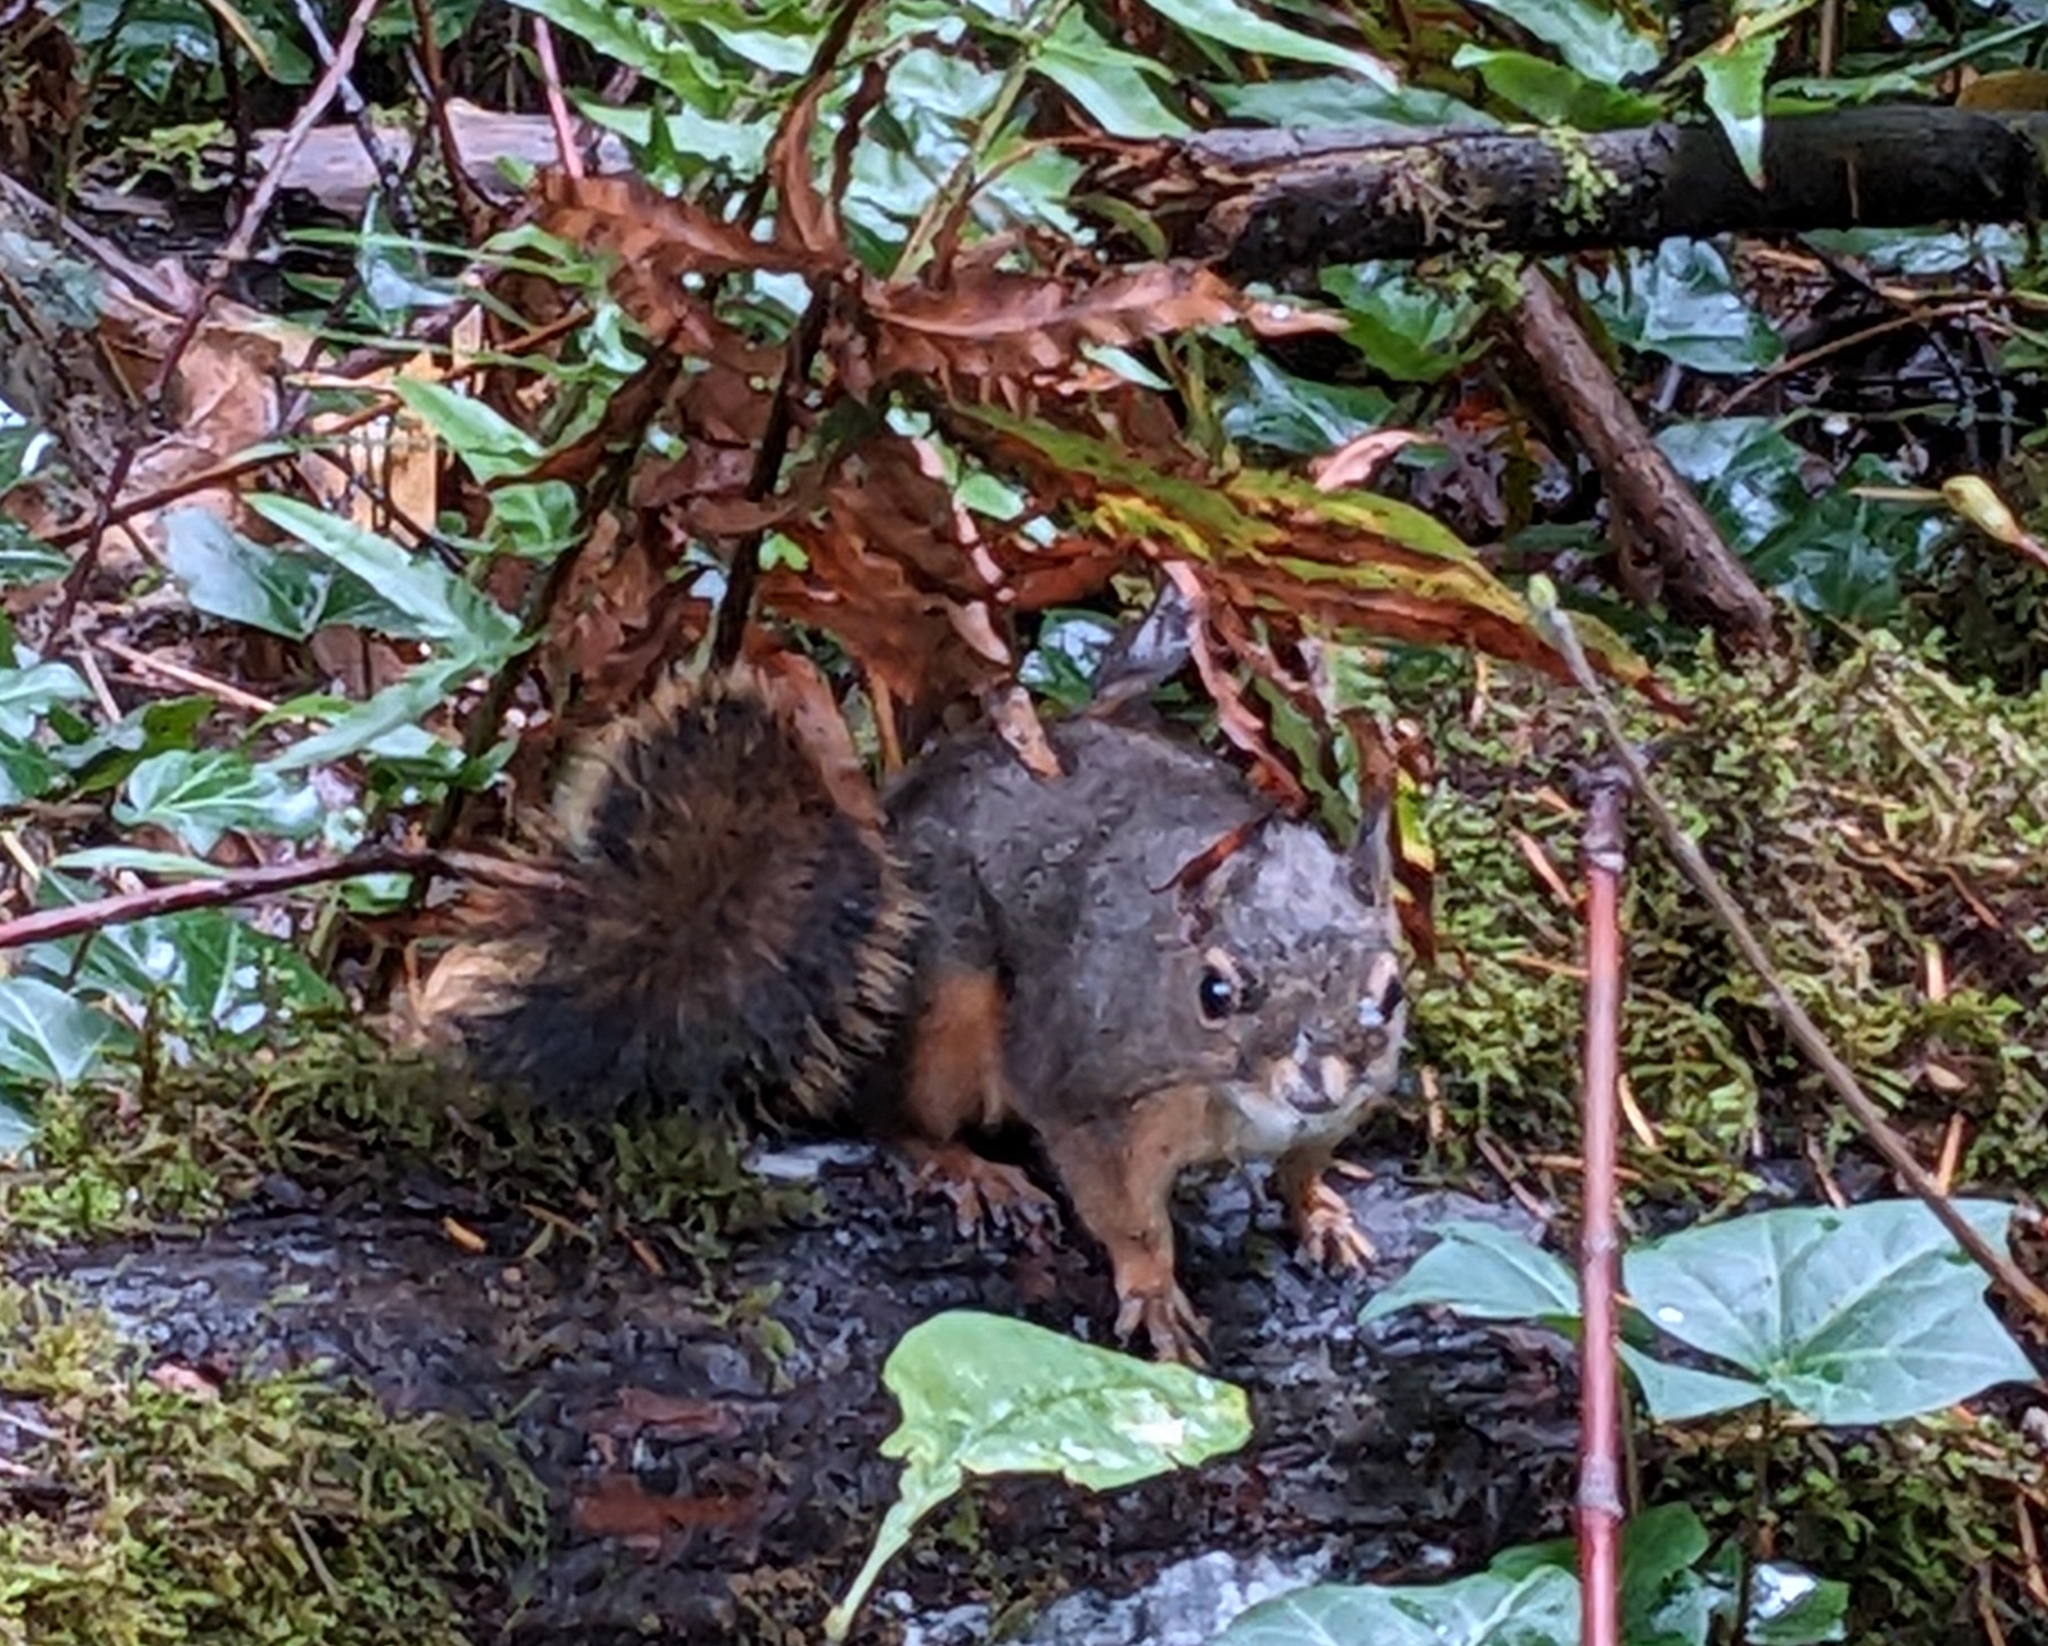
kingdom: Animalia
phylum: Chordata
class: Mammalia
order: Rodentia
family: Sciuridae
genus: Tamiasciurus
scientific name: Tamiasciurus douglasii
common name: Douglas's squirrel
